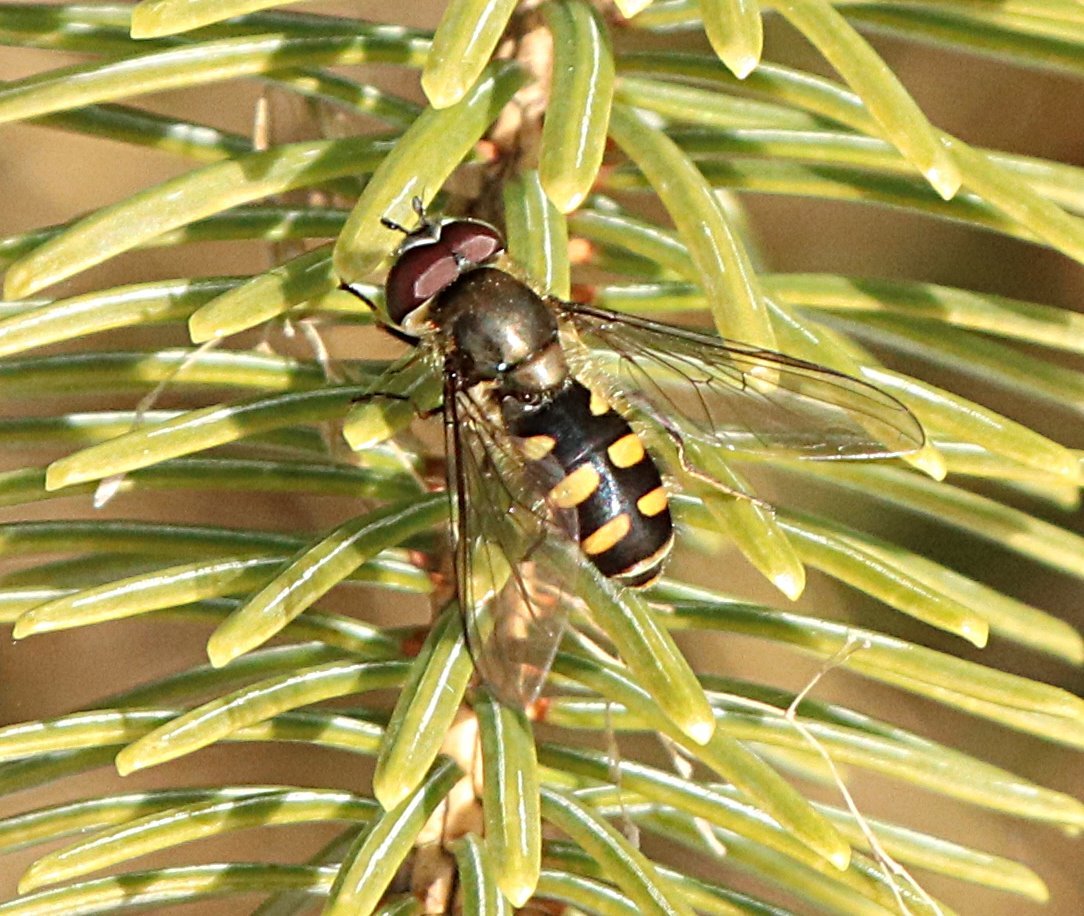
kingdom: Animalia
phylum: Arthropoda
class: Insecta
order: Diptera
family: Syrphidae
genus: Melangyna
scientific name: Melangyna lasiophthalma
